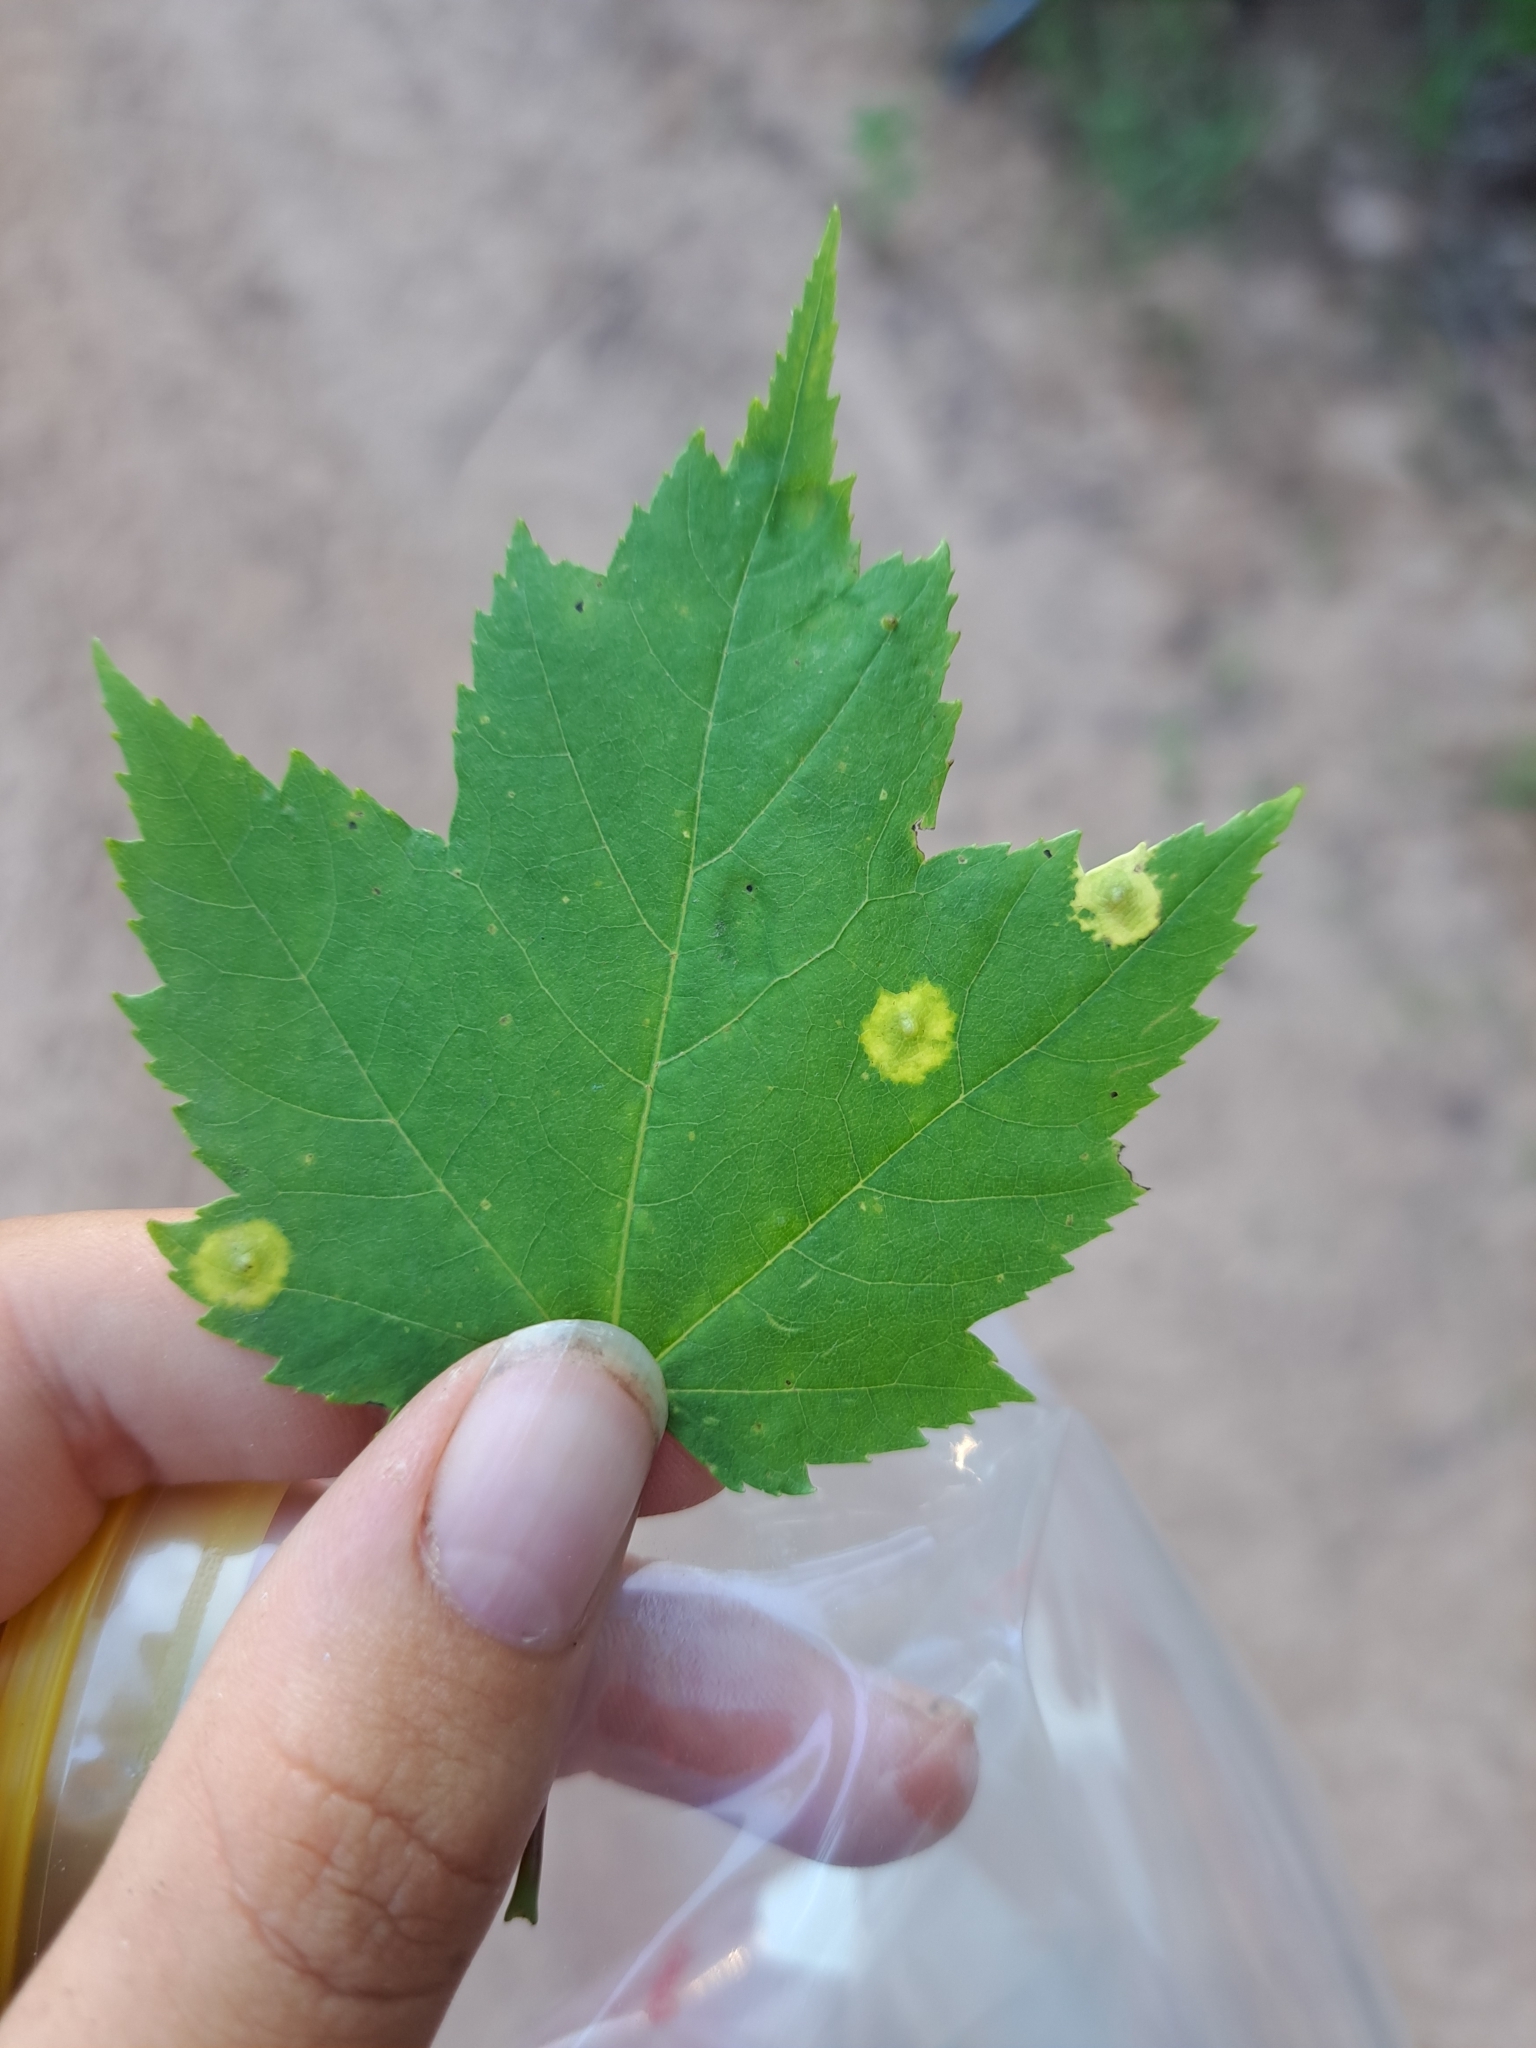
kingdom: Animalia
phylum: Arthropoda
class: Insecta
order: Diptera
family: Cecidomyiidae
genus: Acericecis
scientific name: Acericecis ocellaris
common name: Ocellate gall midge
